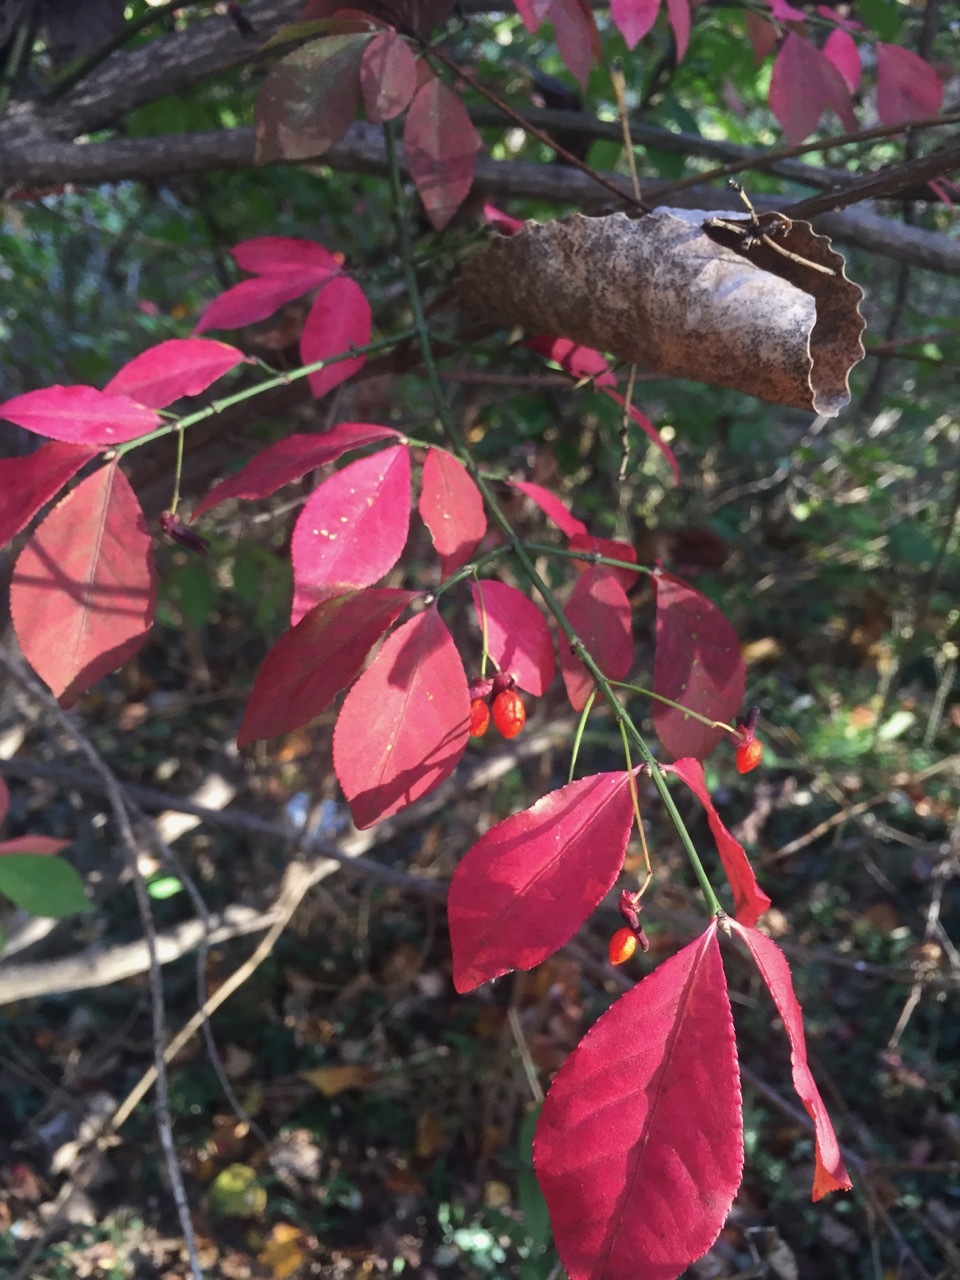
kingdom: Plantae
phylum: Tracheophyta
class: Magnoliopsida
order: Celastrales
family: Celastraceae
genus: Euonymus
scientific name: Euonymus alatus
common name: Winged euonymus
